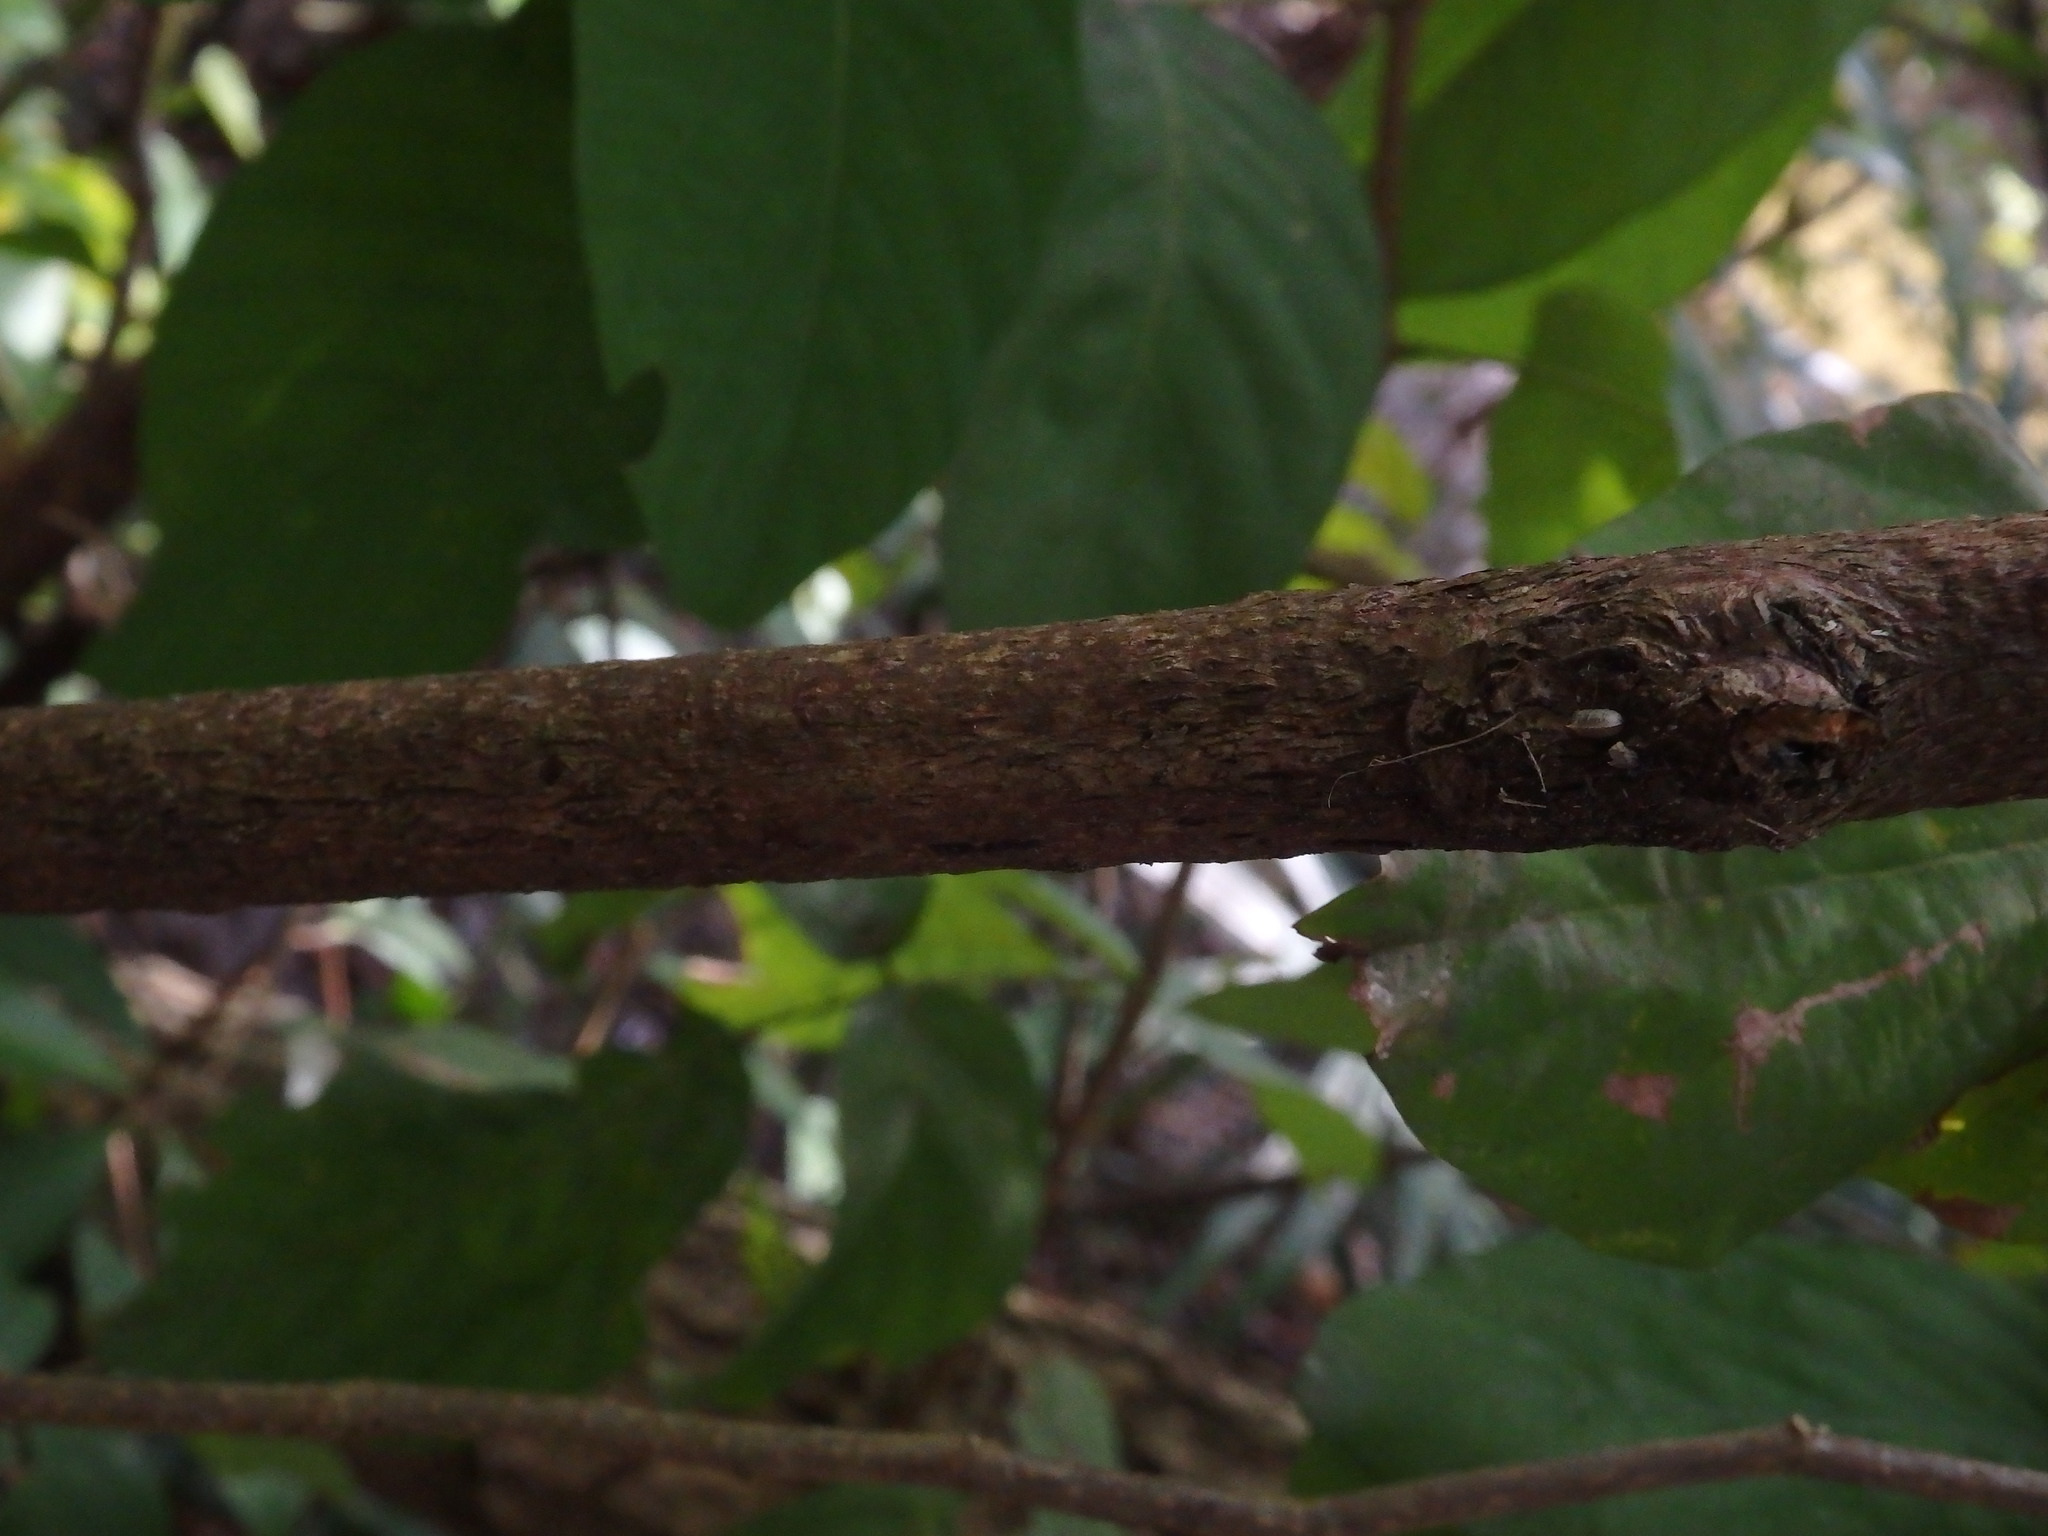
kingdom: Plantae
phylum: Tracheophyta
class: Magnoliopsida
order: Fabales
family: Fabaceae
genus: Dendrolobium
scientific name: Dendrolobium umbellatum
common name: Horsebush
